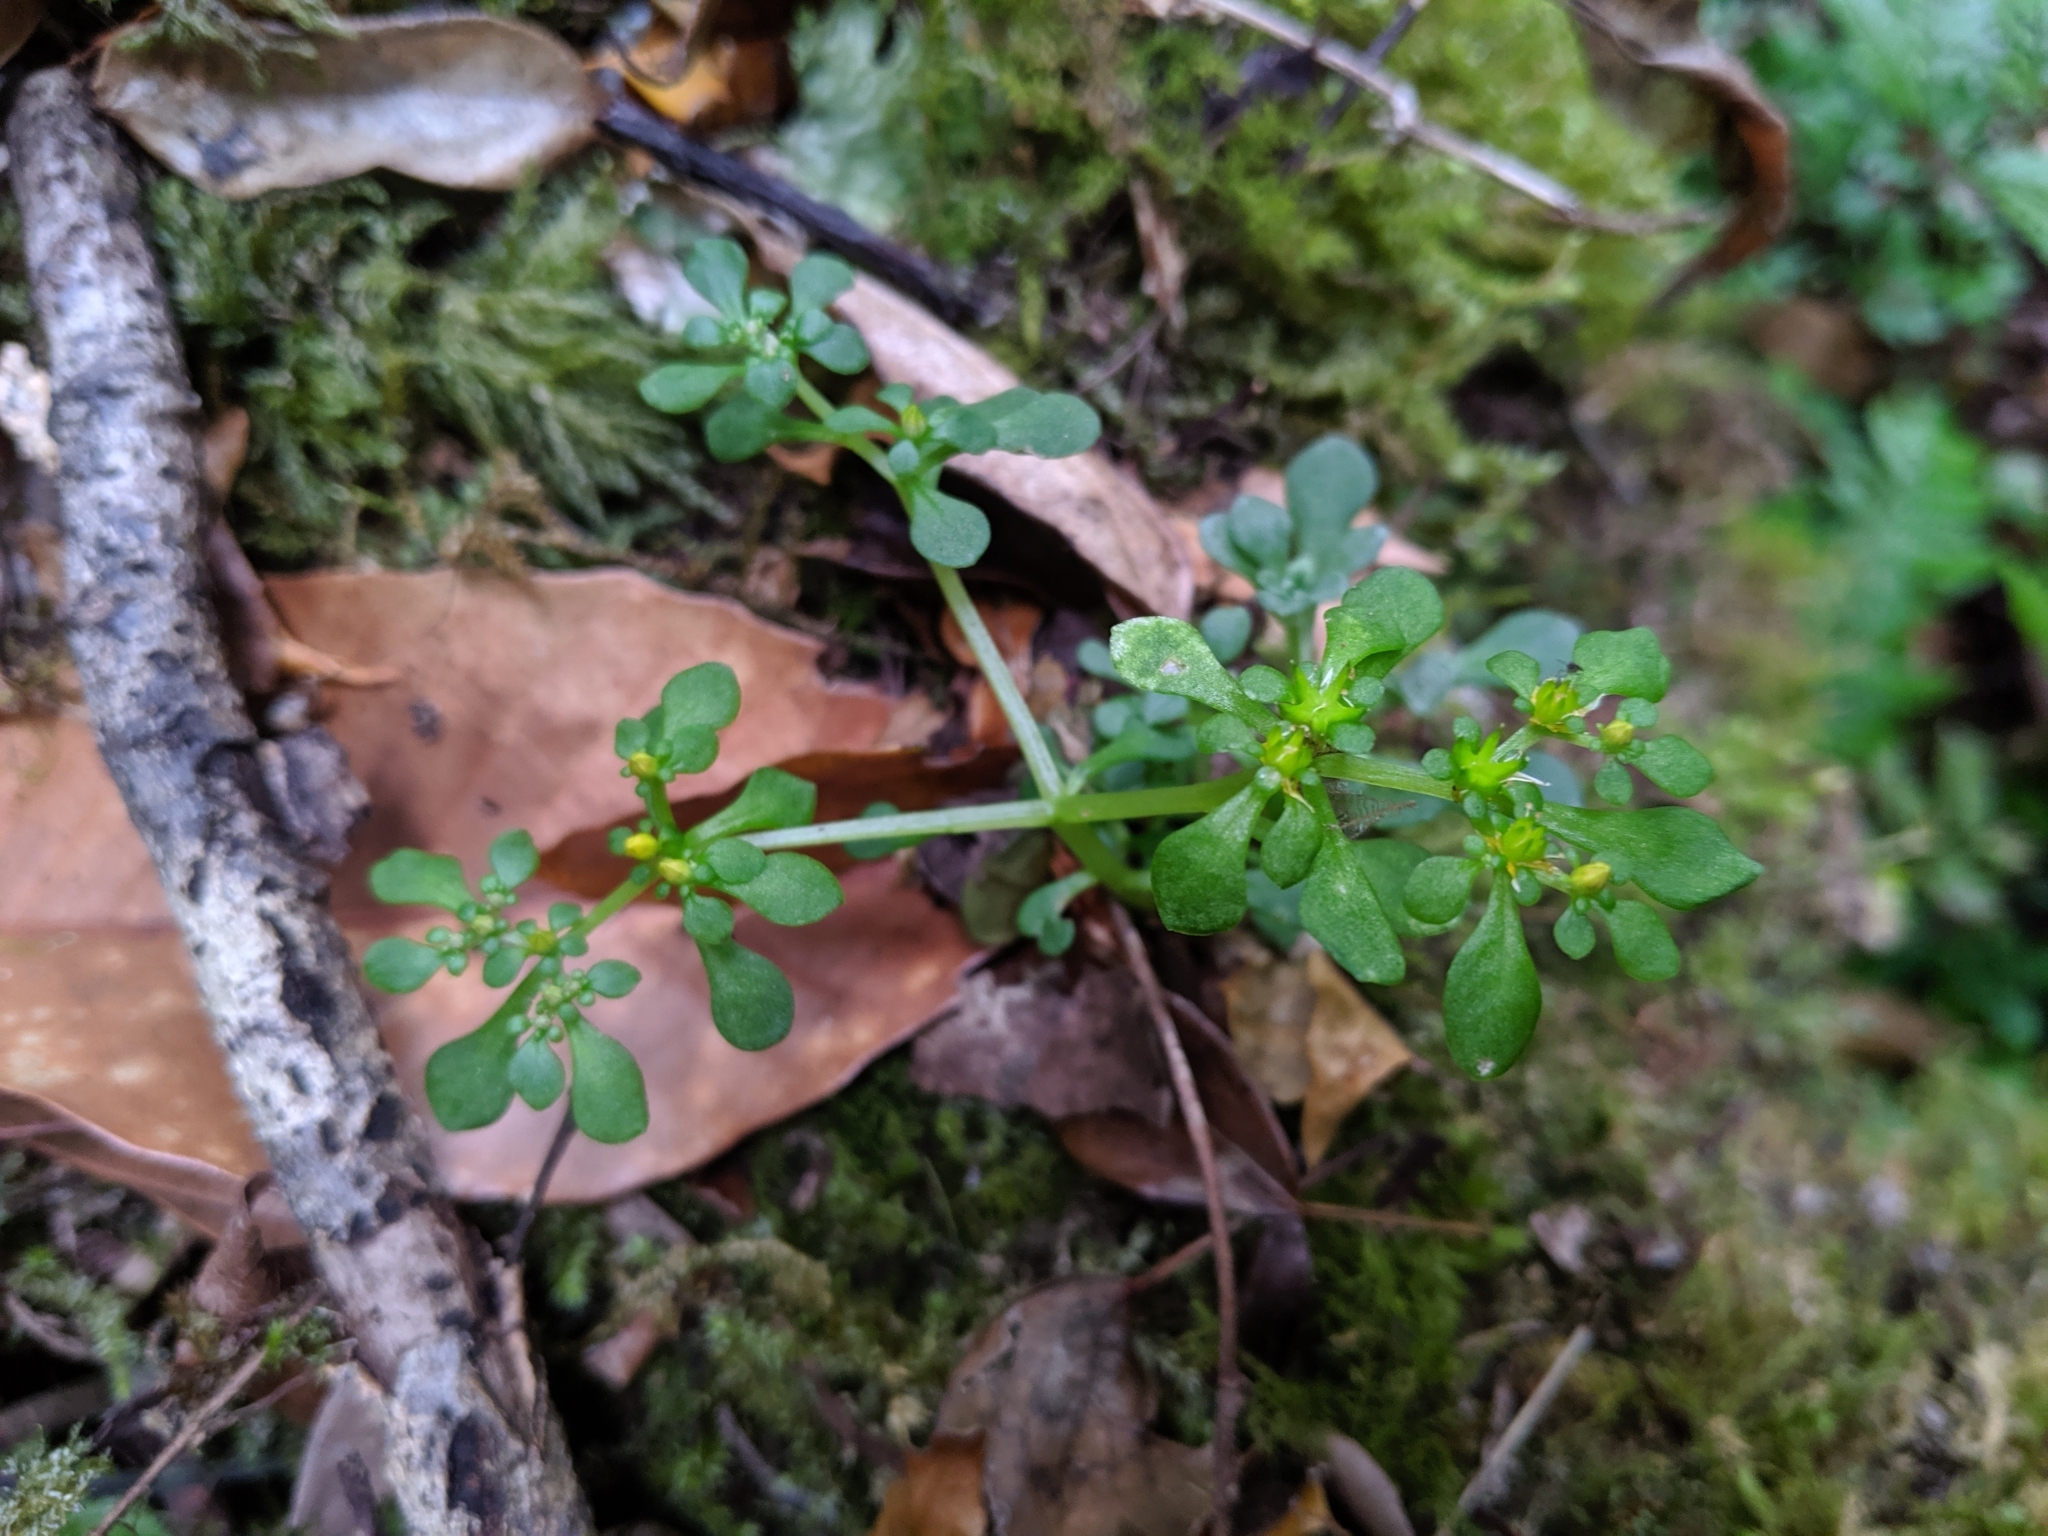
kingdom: Plantae
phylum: Tracheophyta
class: Magnoliopsida
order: Saxifragales
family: Crassulaceae
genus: Sedum
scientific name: Sedum actinocarpum
